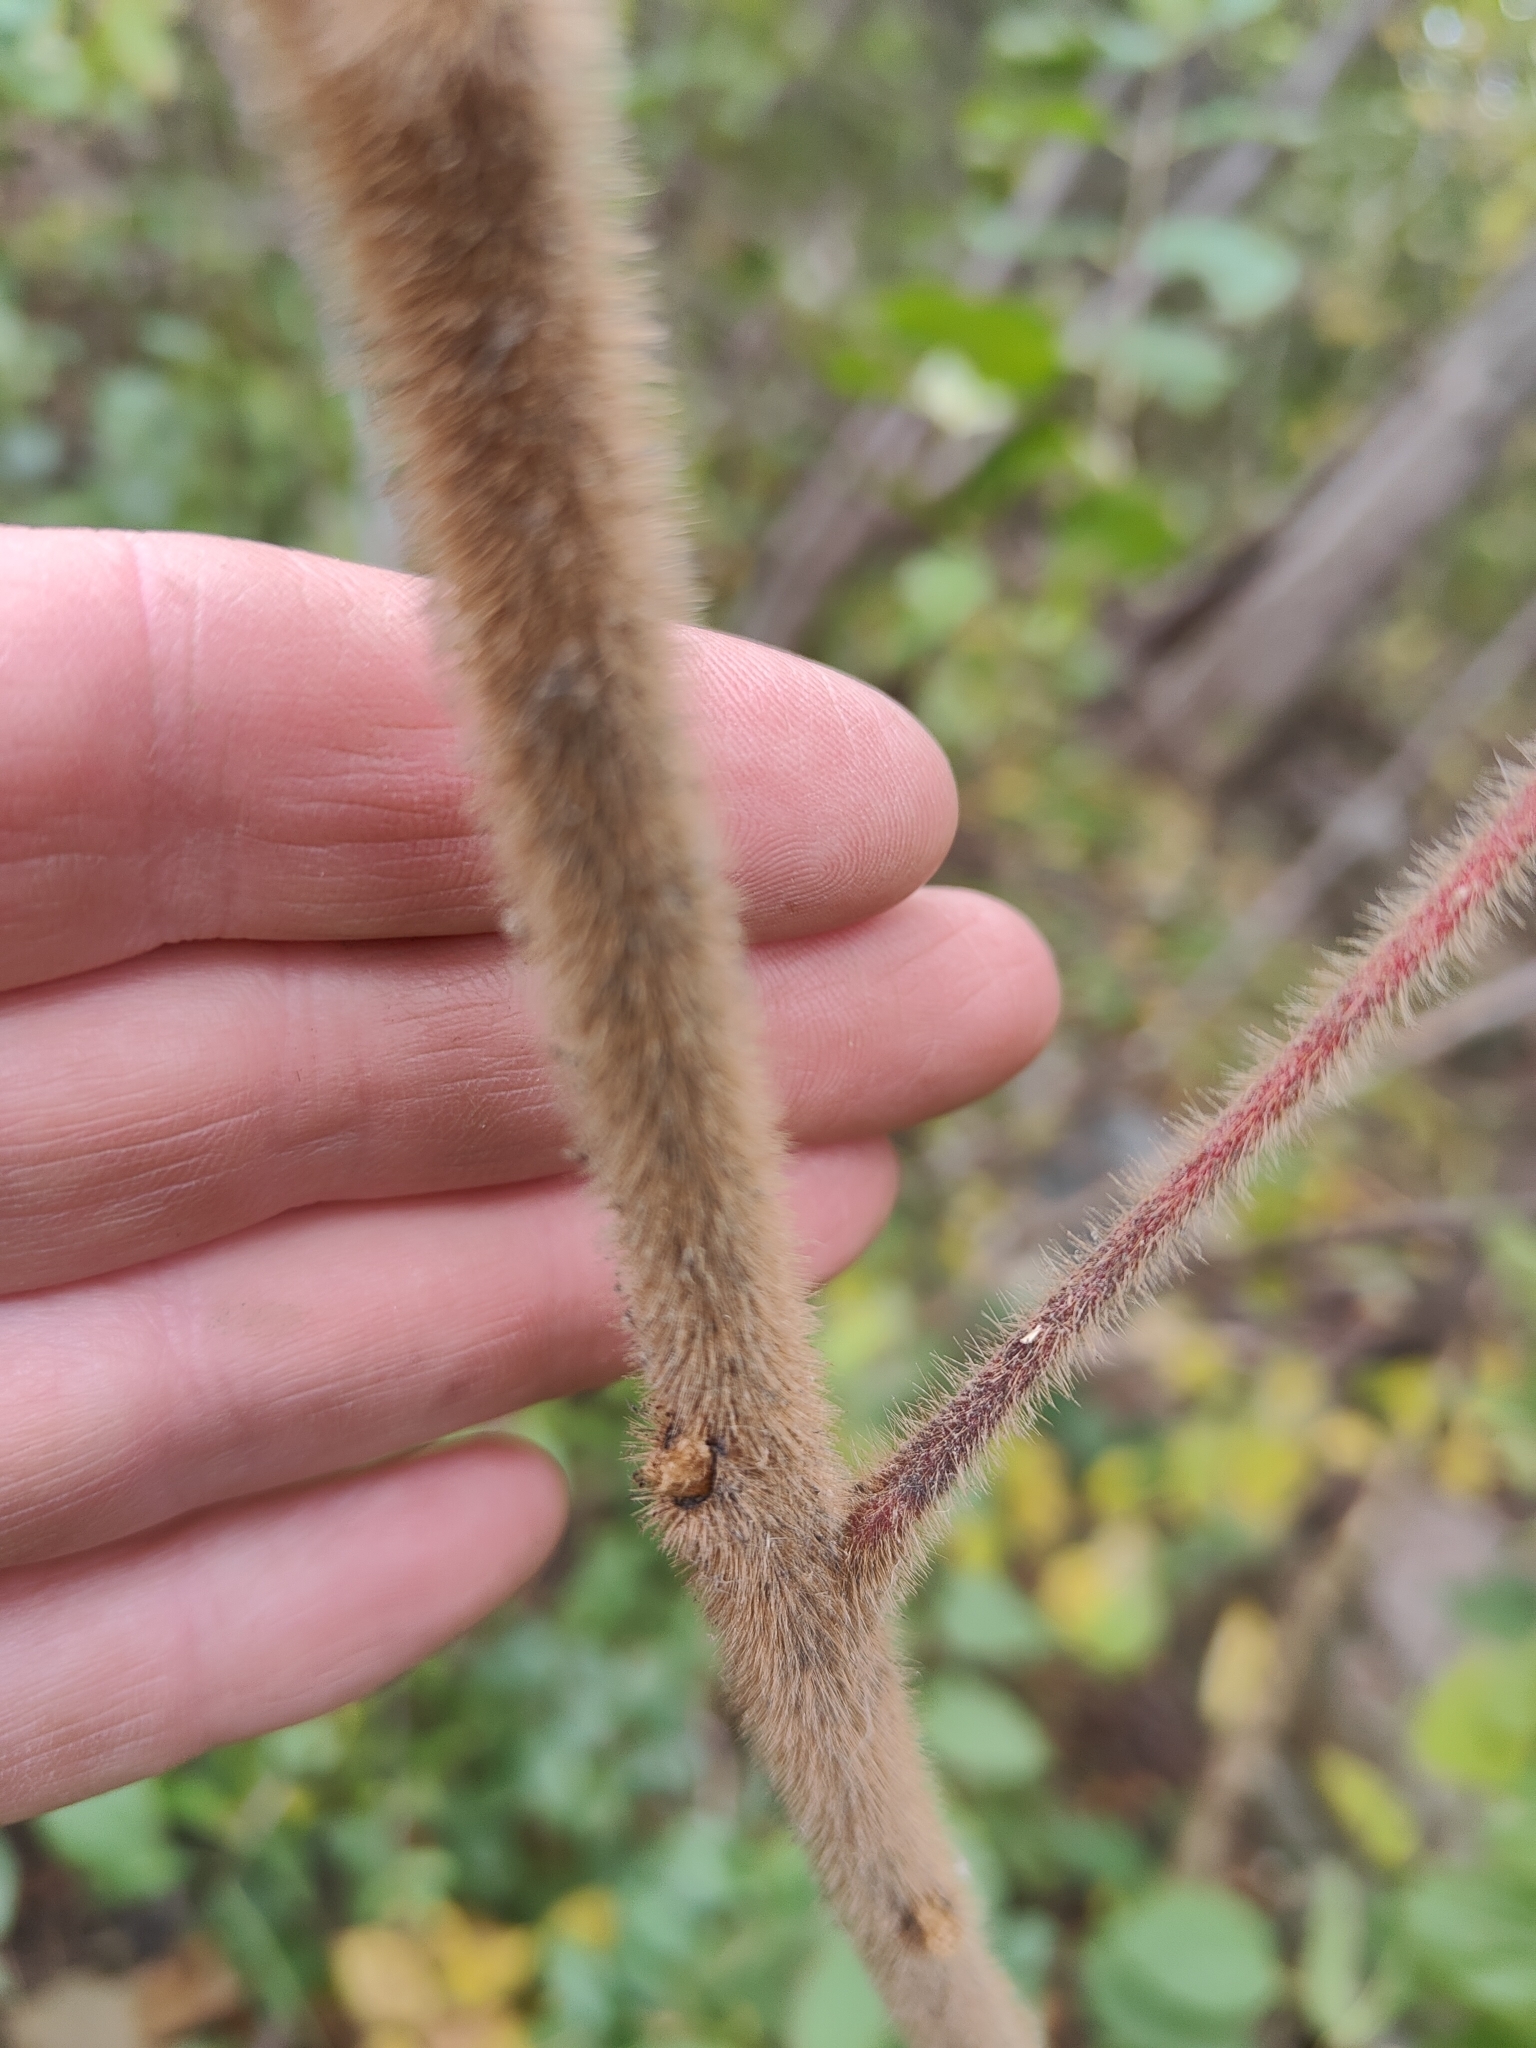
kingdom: Plantae
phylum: Tracheophyta
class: Magnoliopsida
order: Sapindales
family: Anacardiaceae
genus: Rhus
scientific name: Rhus typhina
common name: Staghorn sumac
